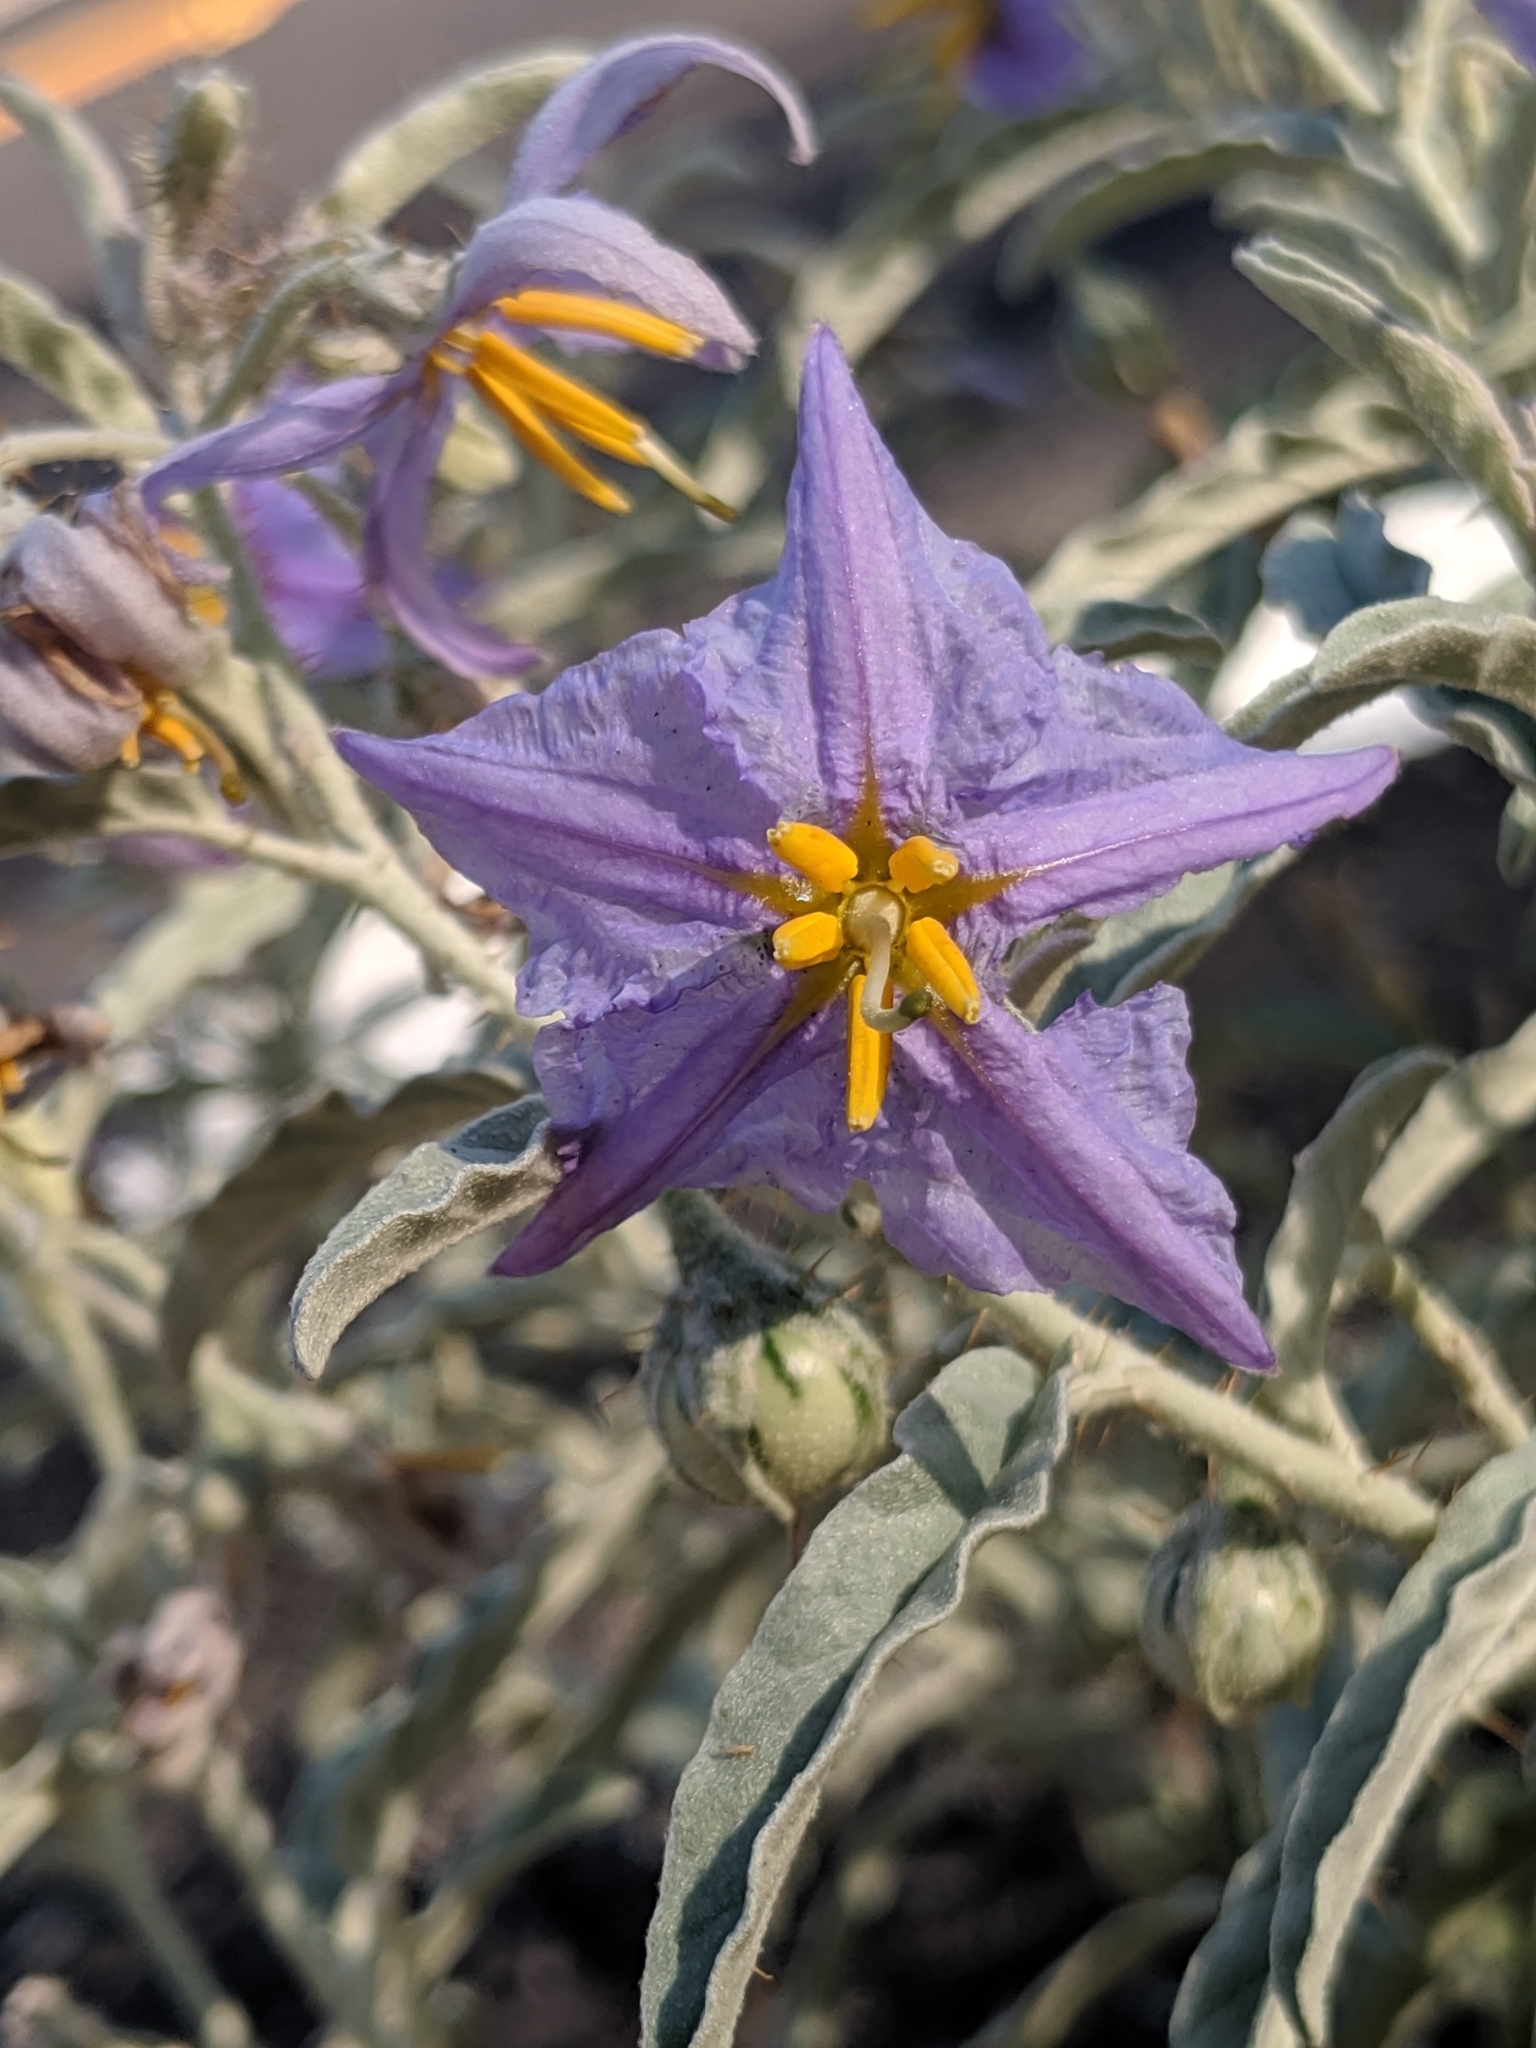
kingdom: Plantae
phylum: Tracheophyta
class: Magnoliopsida
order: Solanales
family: Solanaceae
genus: Solanum
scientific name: Solanum elaeagnifolium
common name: Silverleaf nightshade
